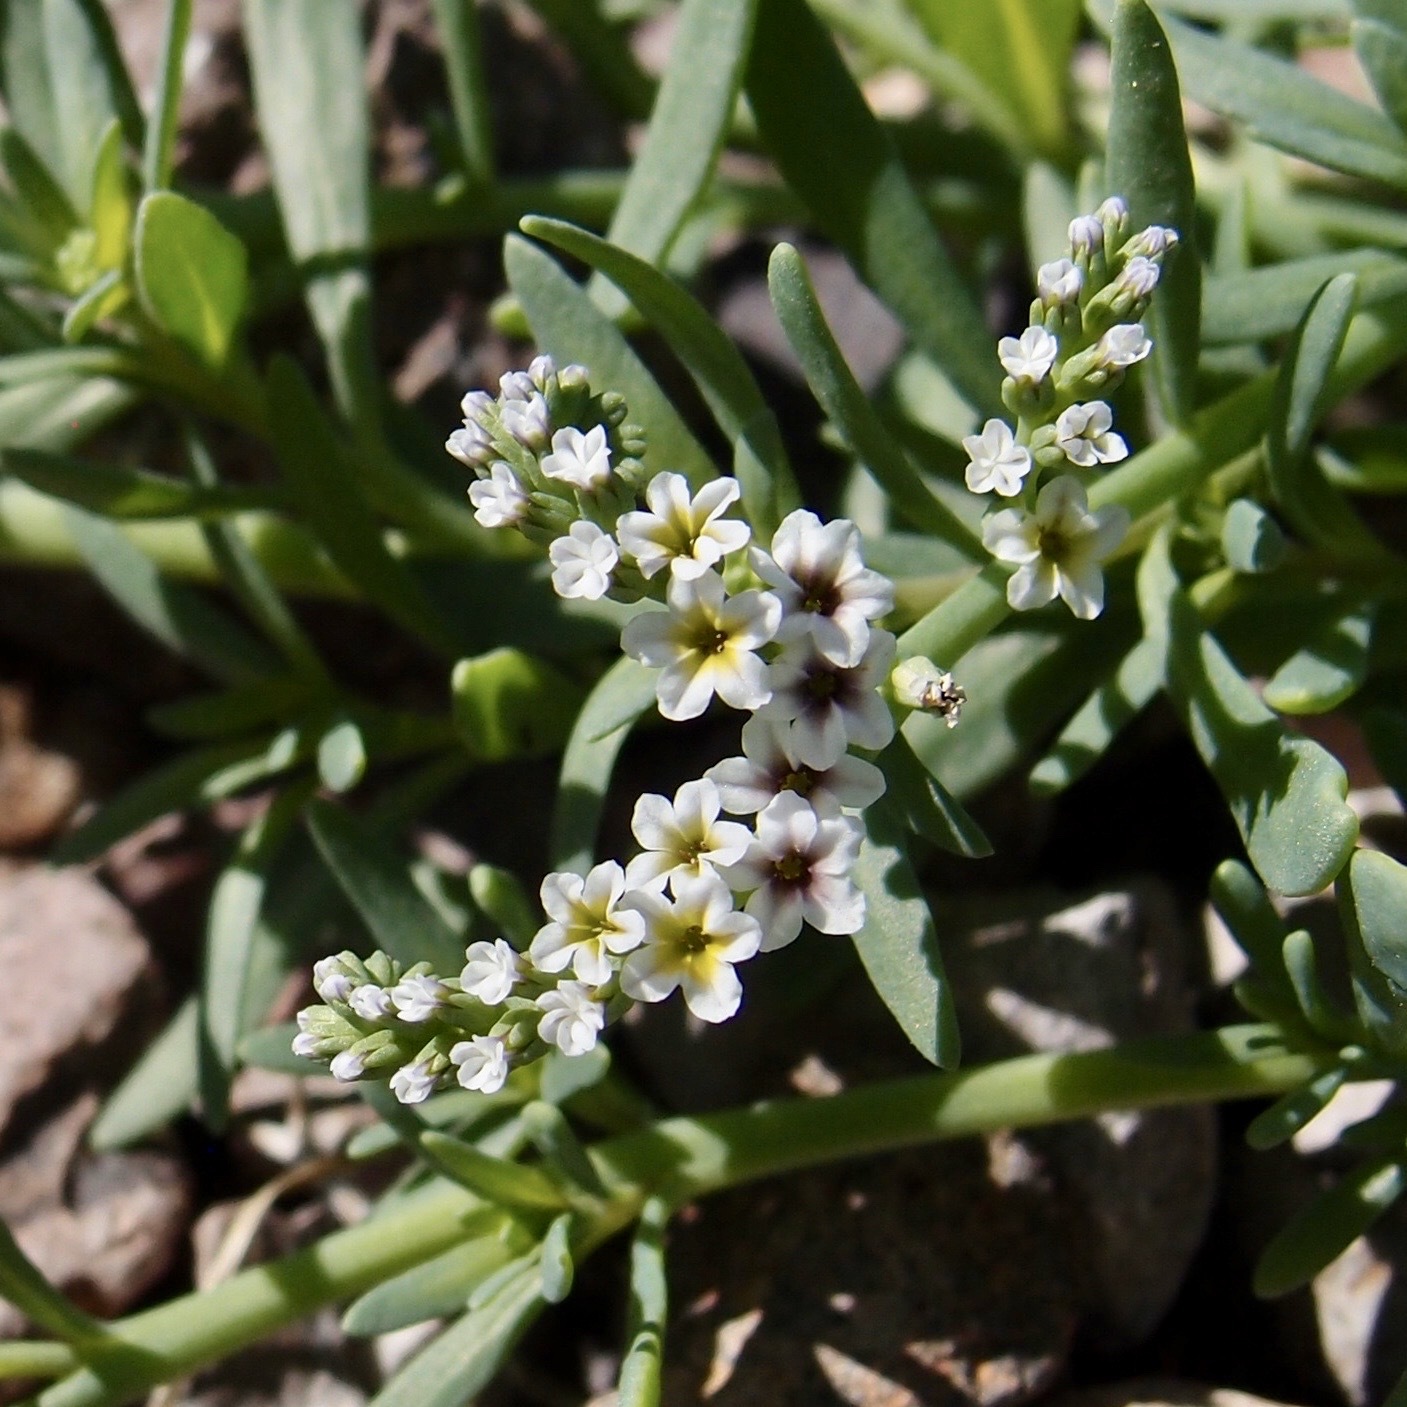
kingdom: Plantae
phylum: Tracheophyta
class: Magnoliopsida
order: Boraginales
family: Heliotropiaceae
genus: Heliotropium
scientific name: Heliotropium curassavicum
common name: Seaside heliotrope
